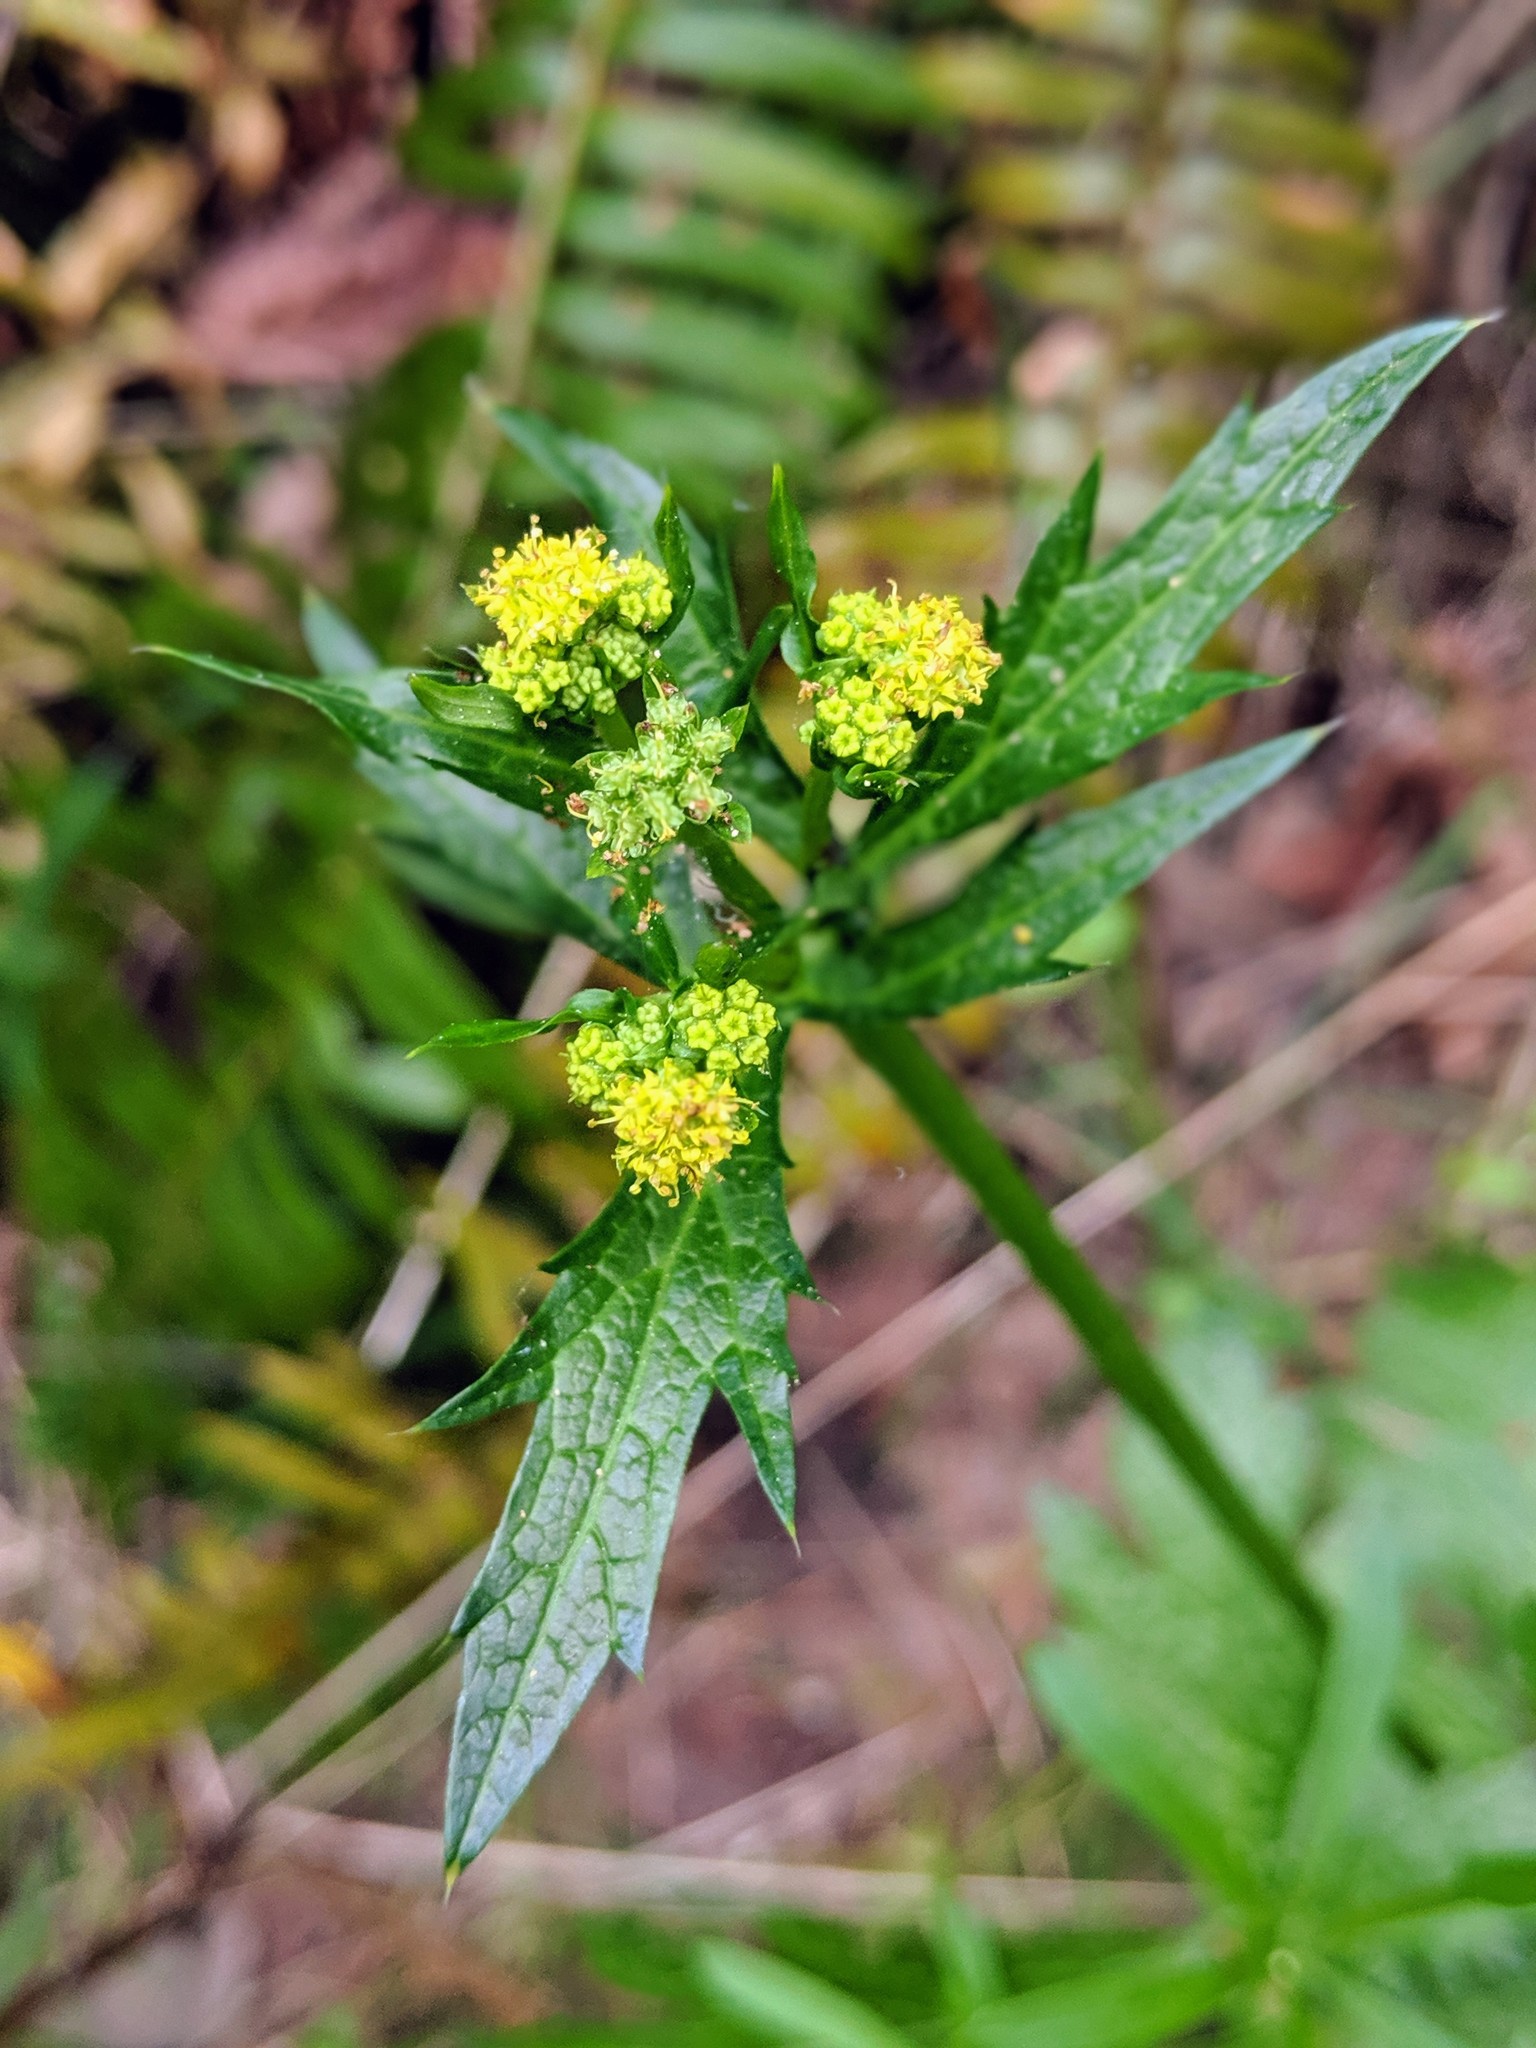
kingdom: Plantae
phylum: Tracheophyta
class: Magnoliopsida
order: Apiales
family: Apiaceae
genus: Sanicula
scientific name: Sanicula crassicaulis
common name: Western snakeroot
